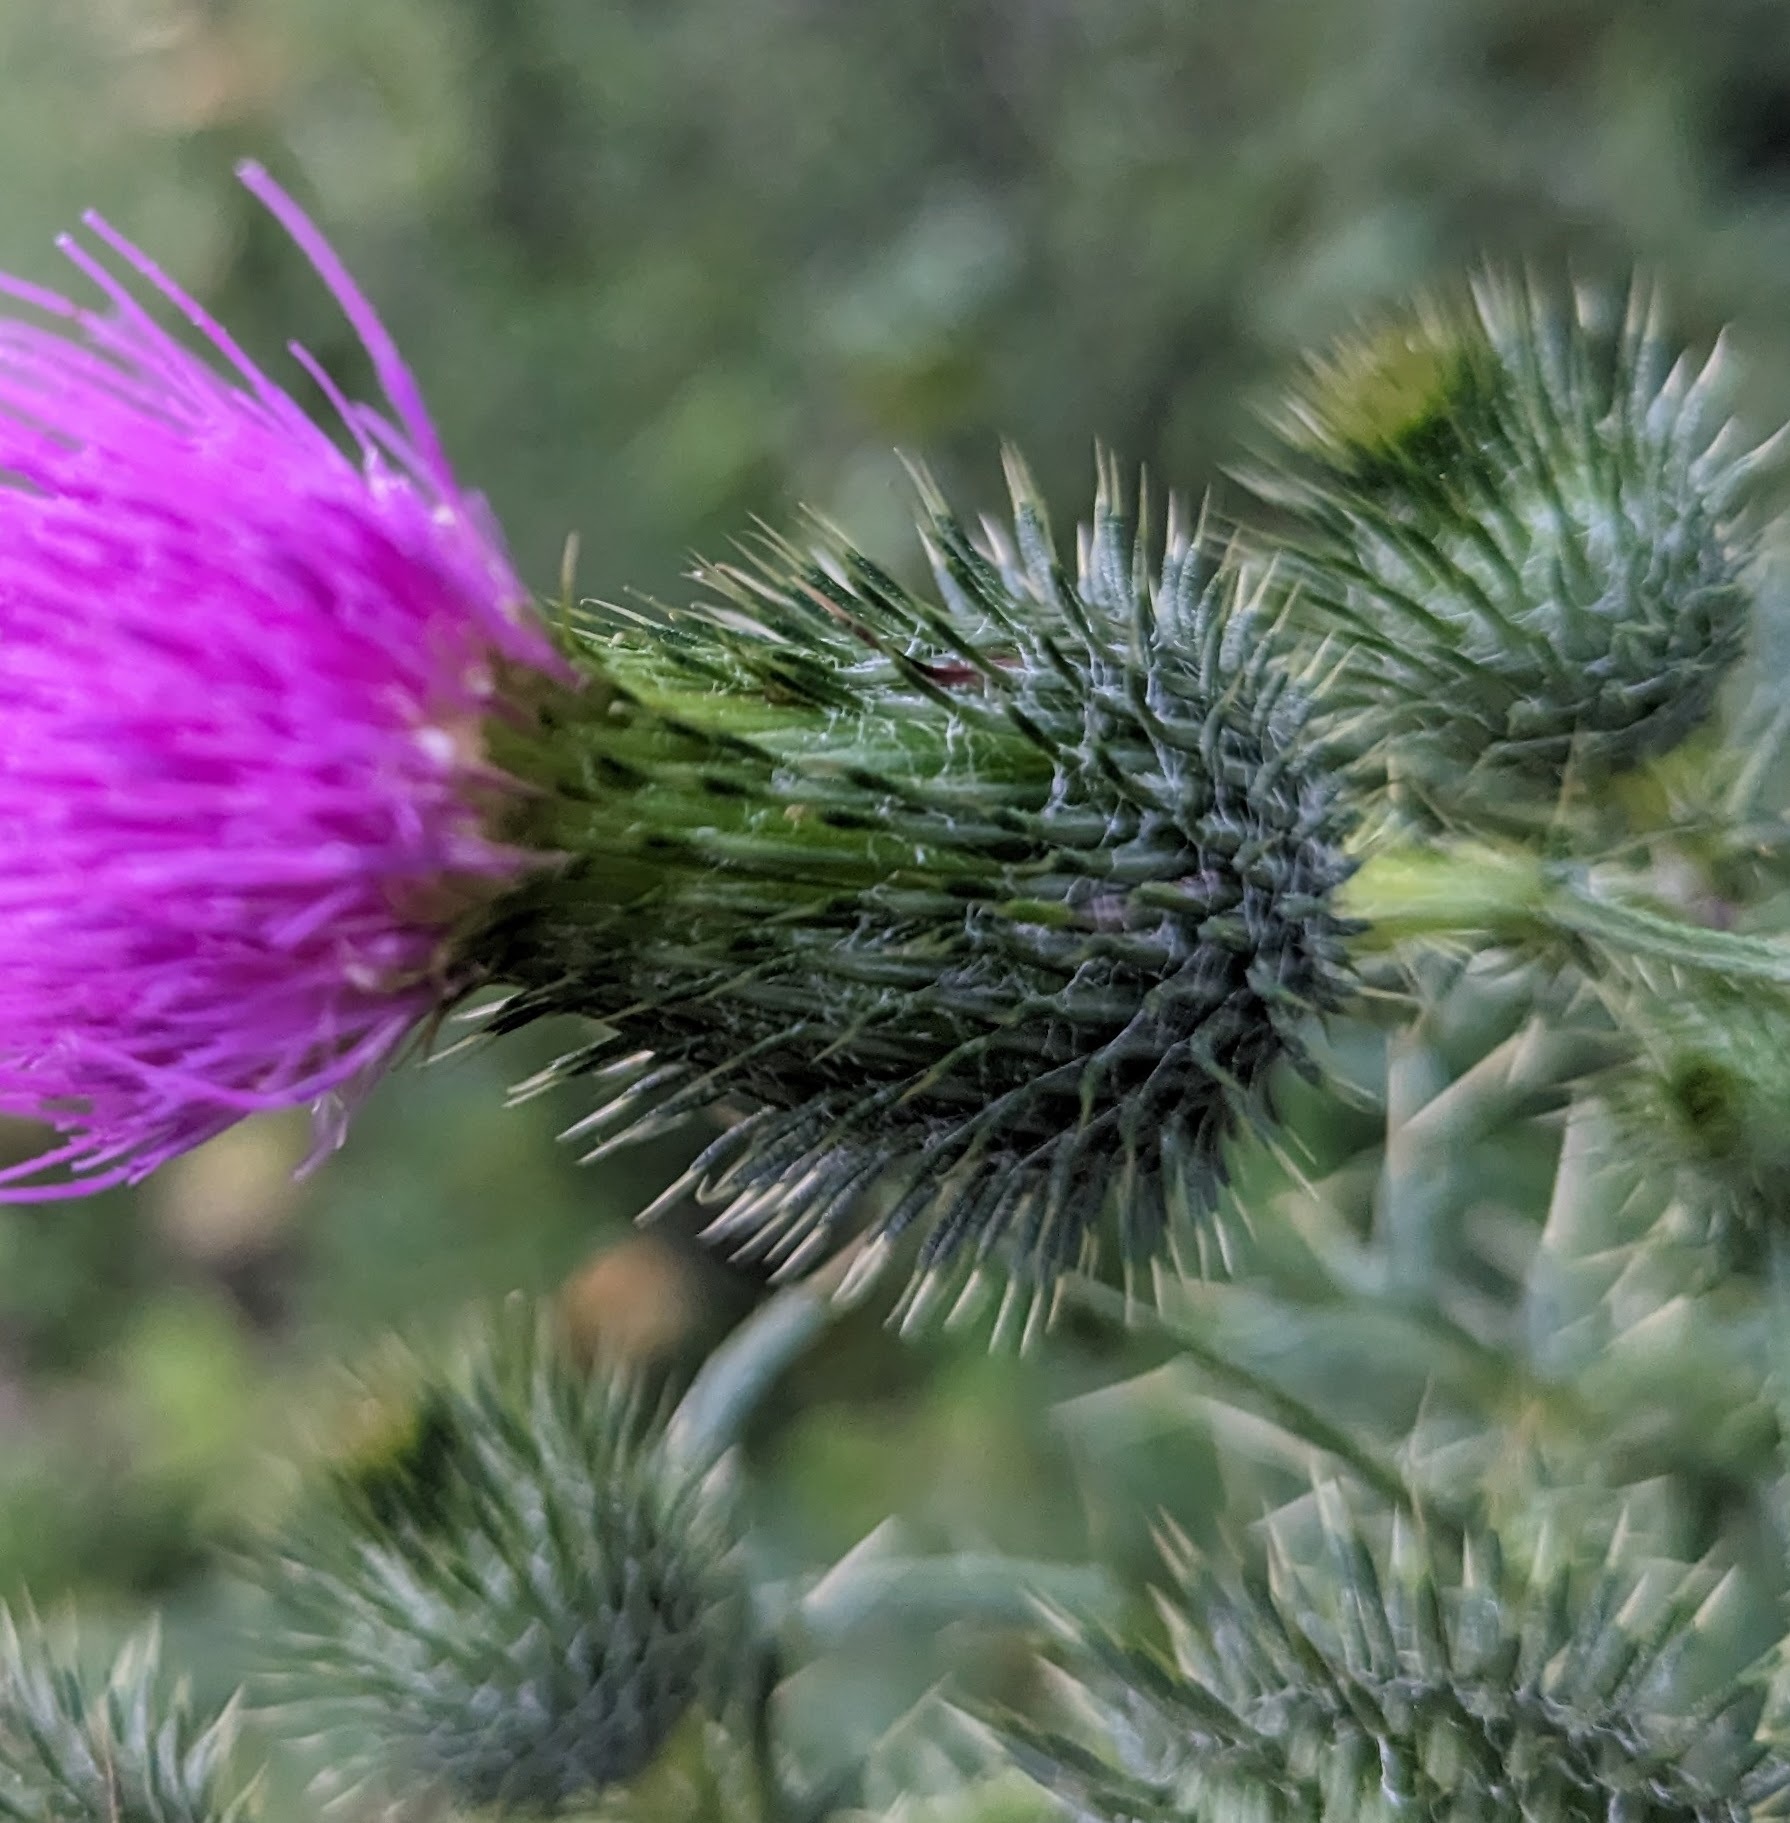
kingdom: Plantae
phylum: Tracheophyta
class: Magnoliopsida
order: Asterales
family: Asteraceae
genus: Cirsium
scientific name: Cirsium vulgare
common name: Bull thistle
